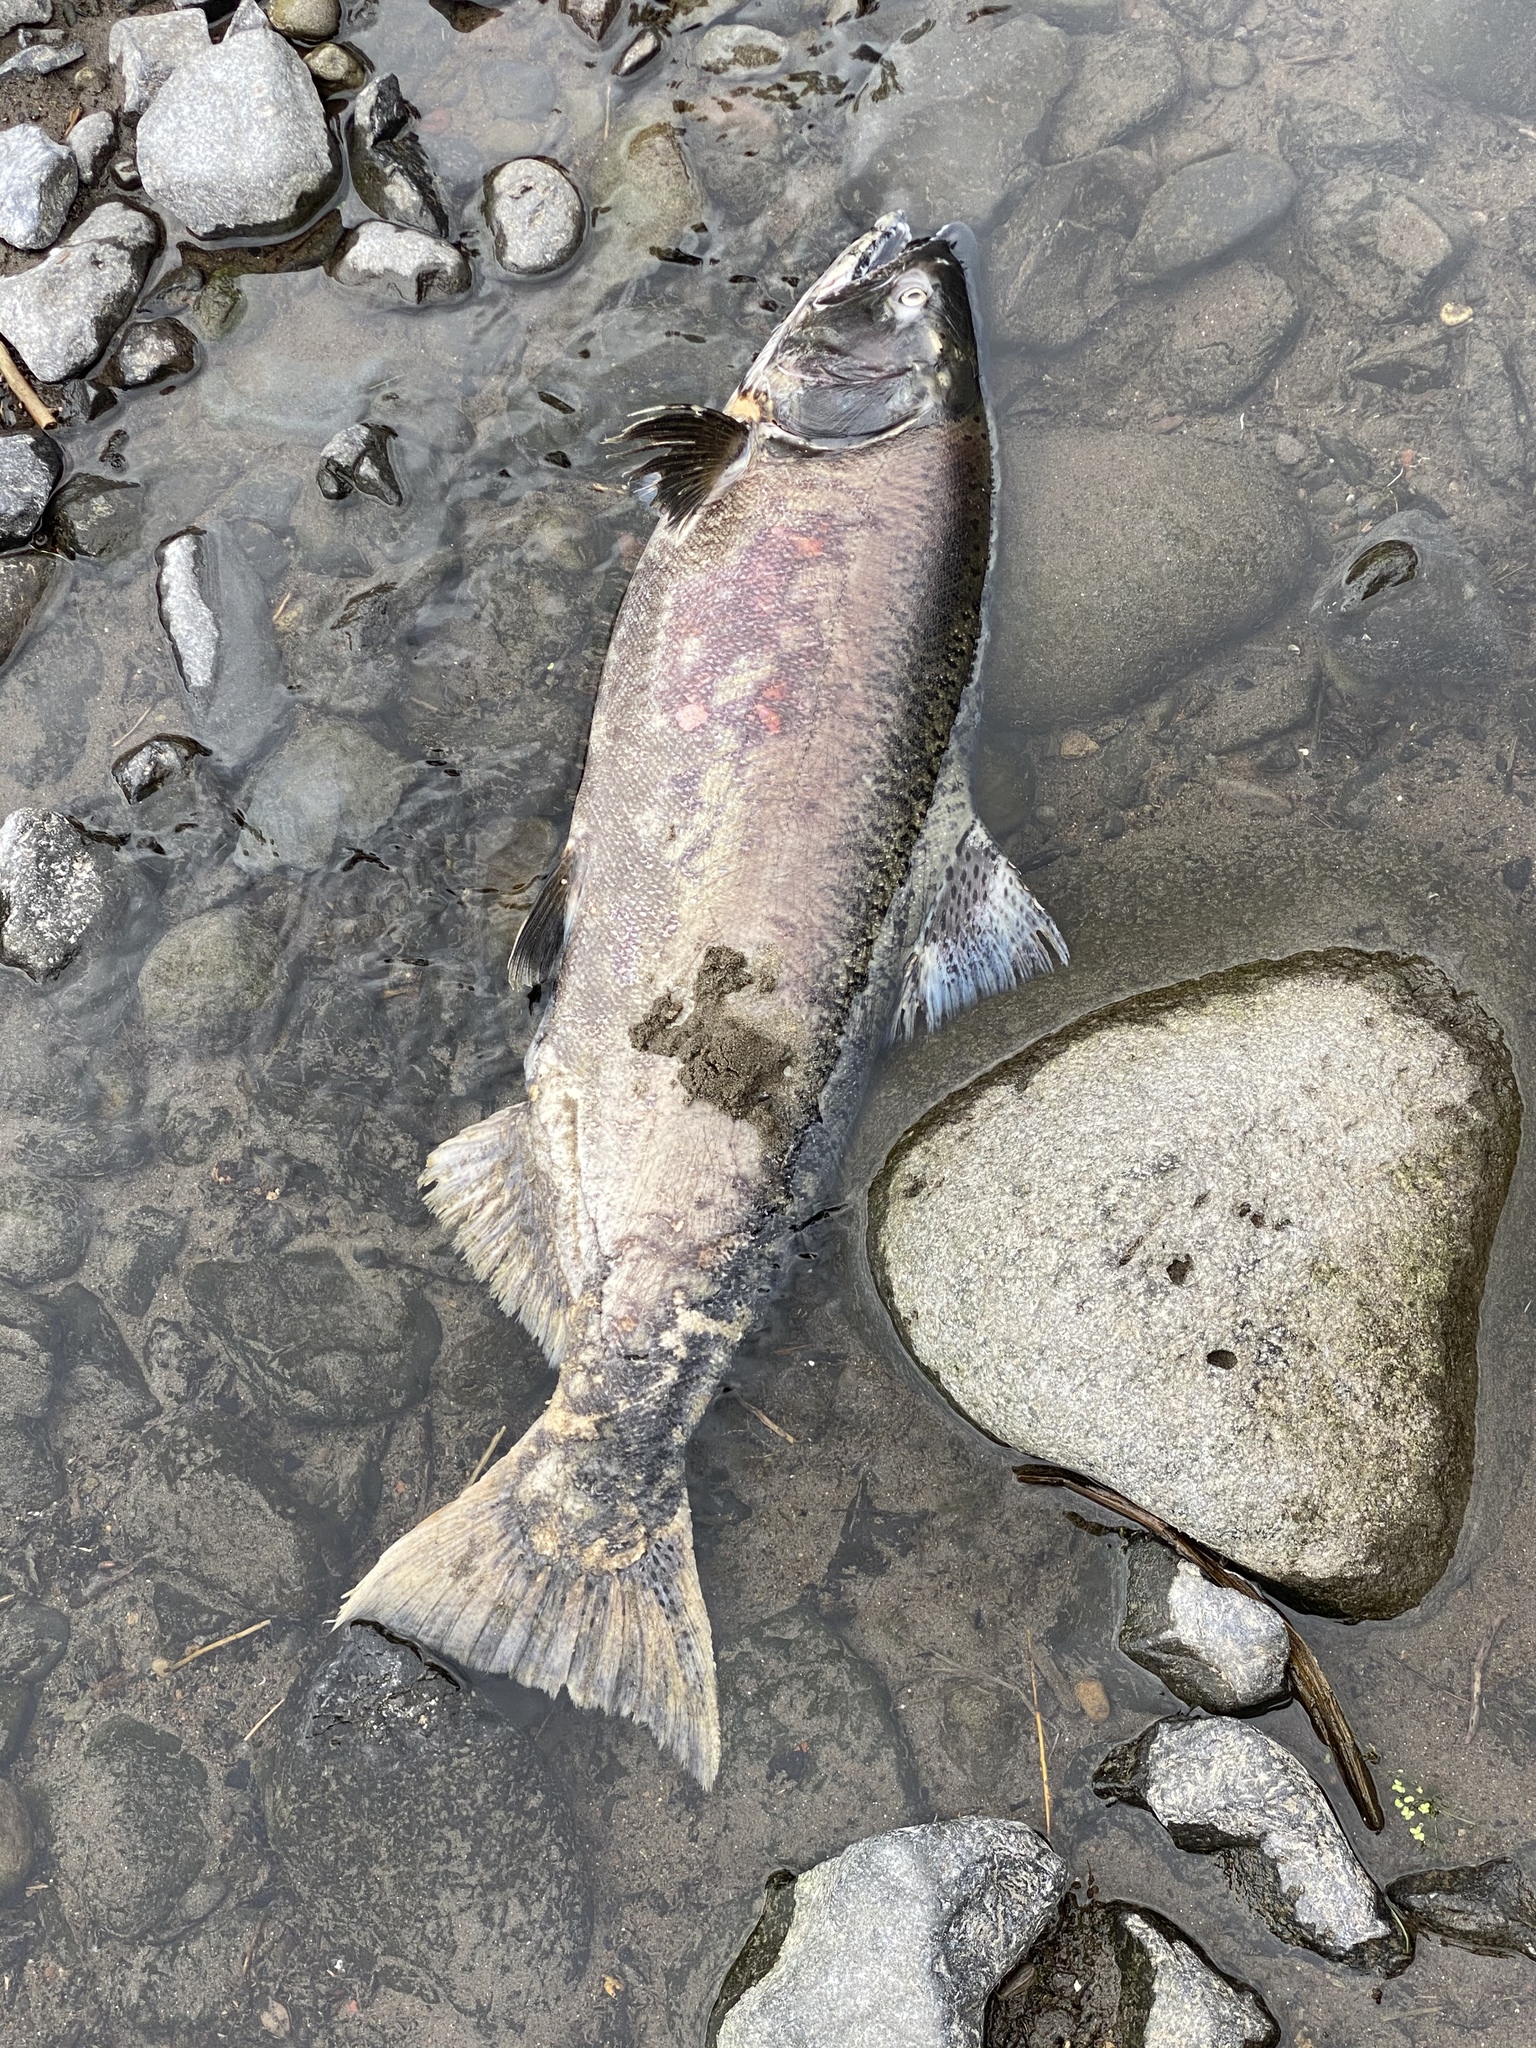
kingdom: Animalia
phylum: Chordata
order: Salmoniformes
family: Salmonidae
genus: Oncorhynchus
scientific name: Oncorhynchus tshawytscha
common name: Chinook salmon
